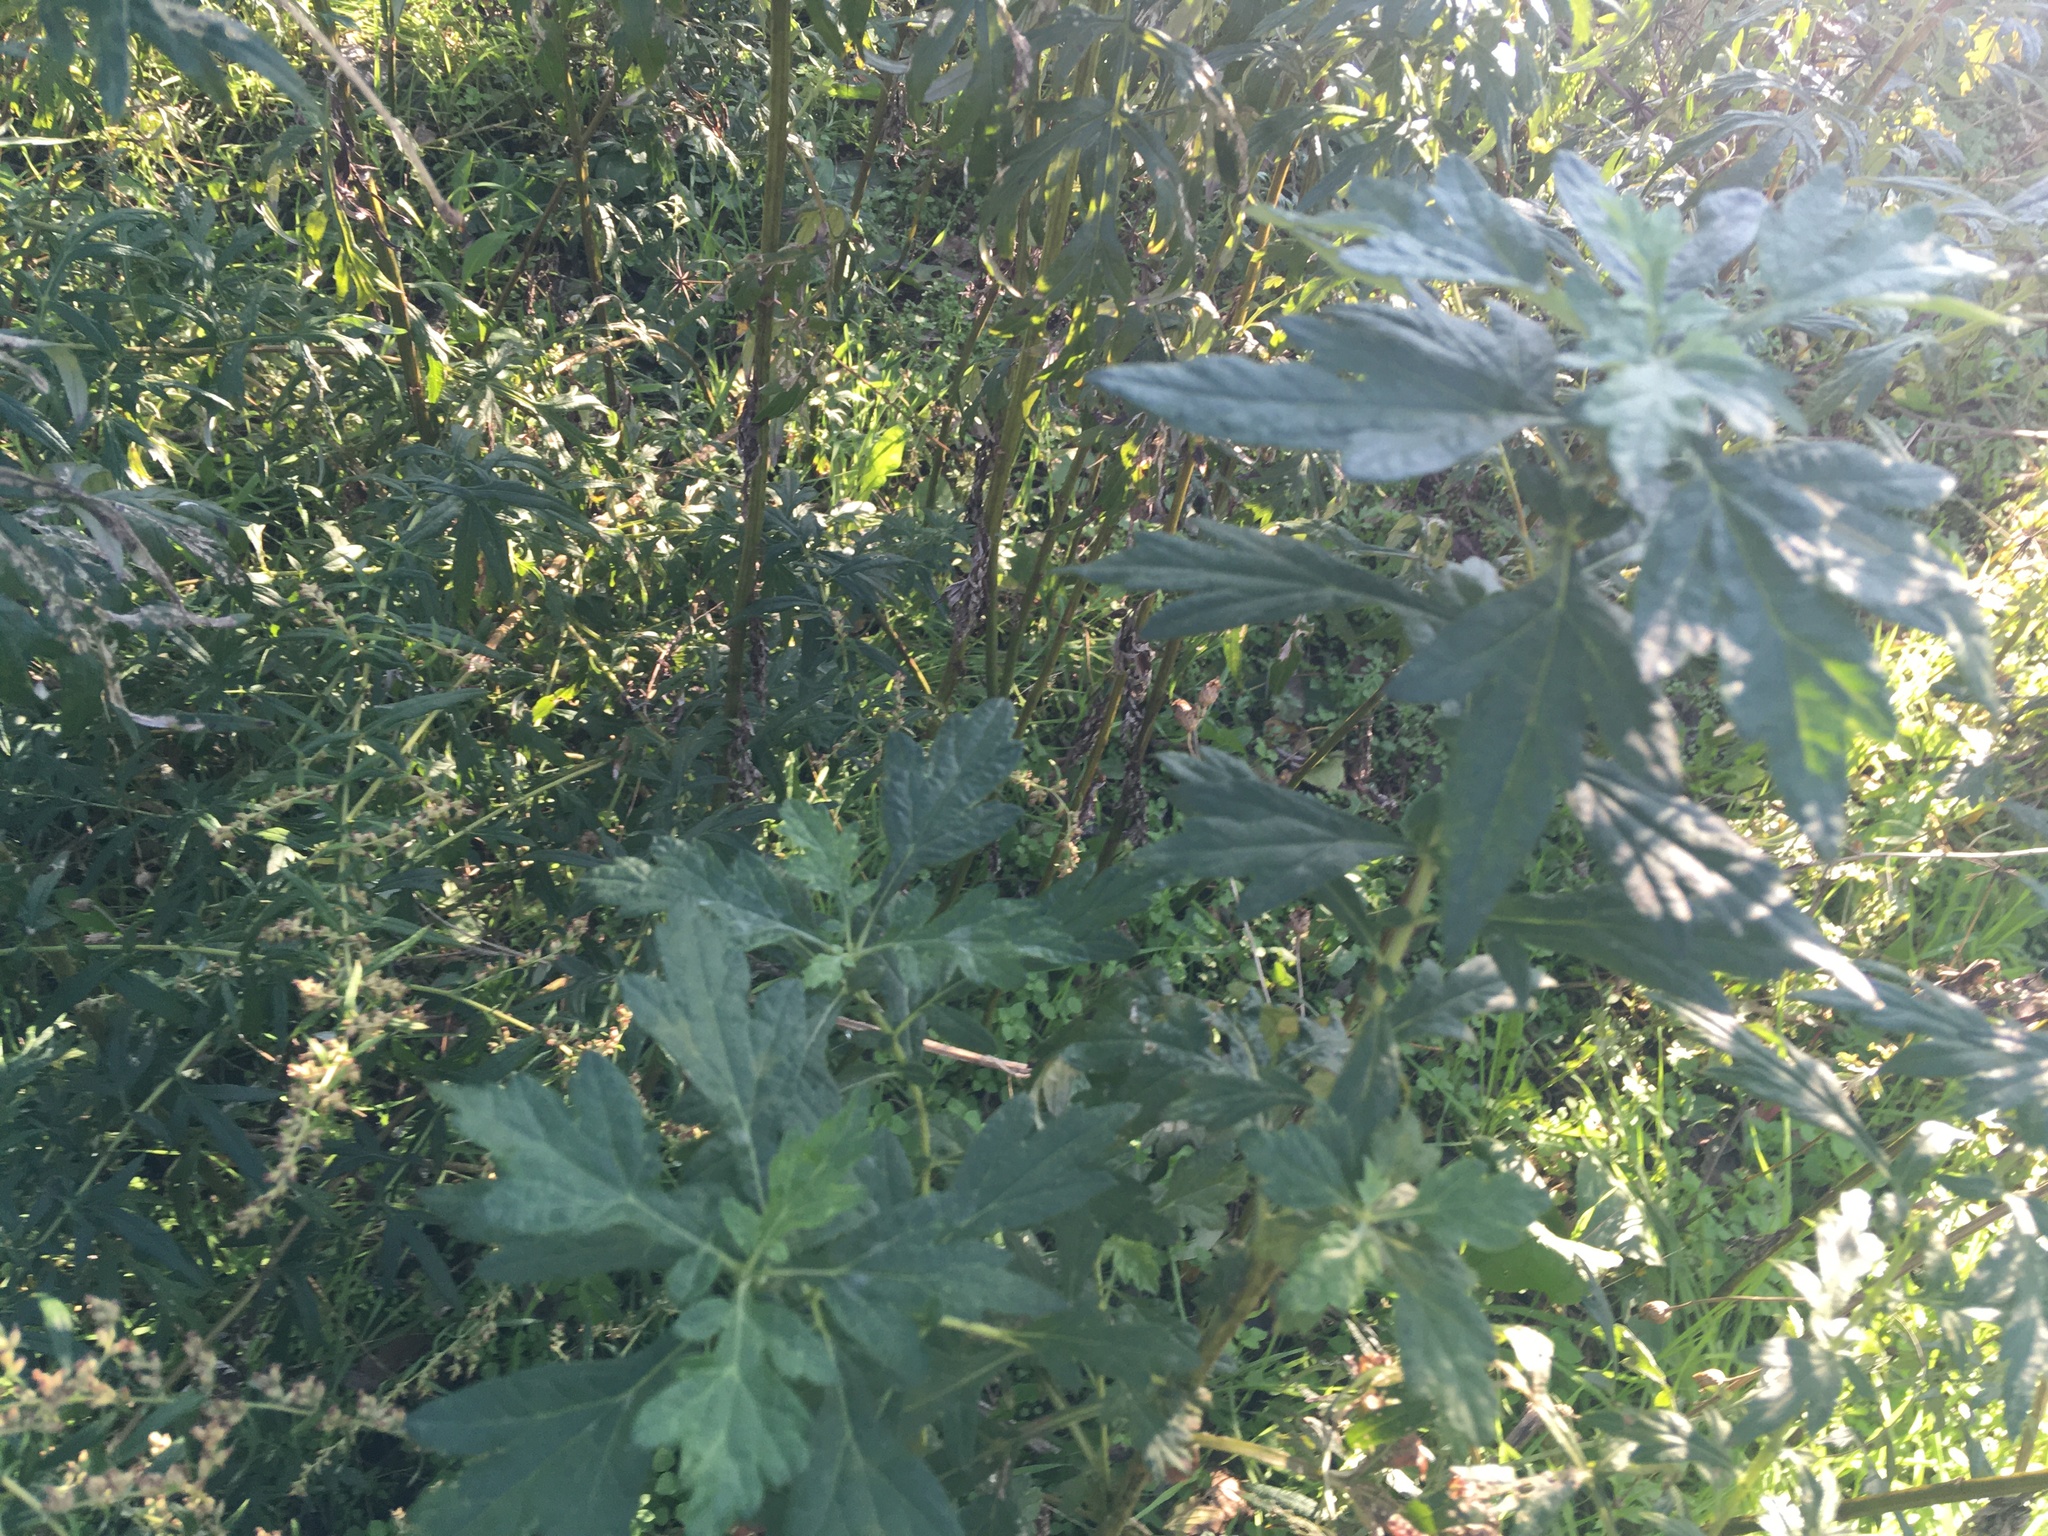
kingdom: Plantae
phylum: Tracheophyta
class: Magnoliopsida
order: Asterales
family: Asteraceae
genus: Artemisia
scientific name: Artemisia vulgaris
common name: Mugwort
